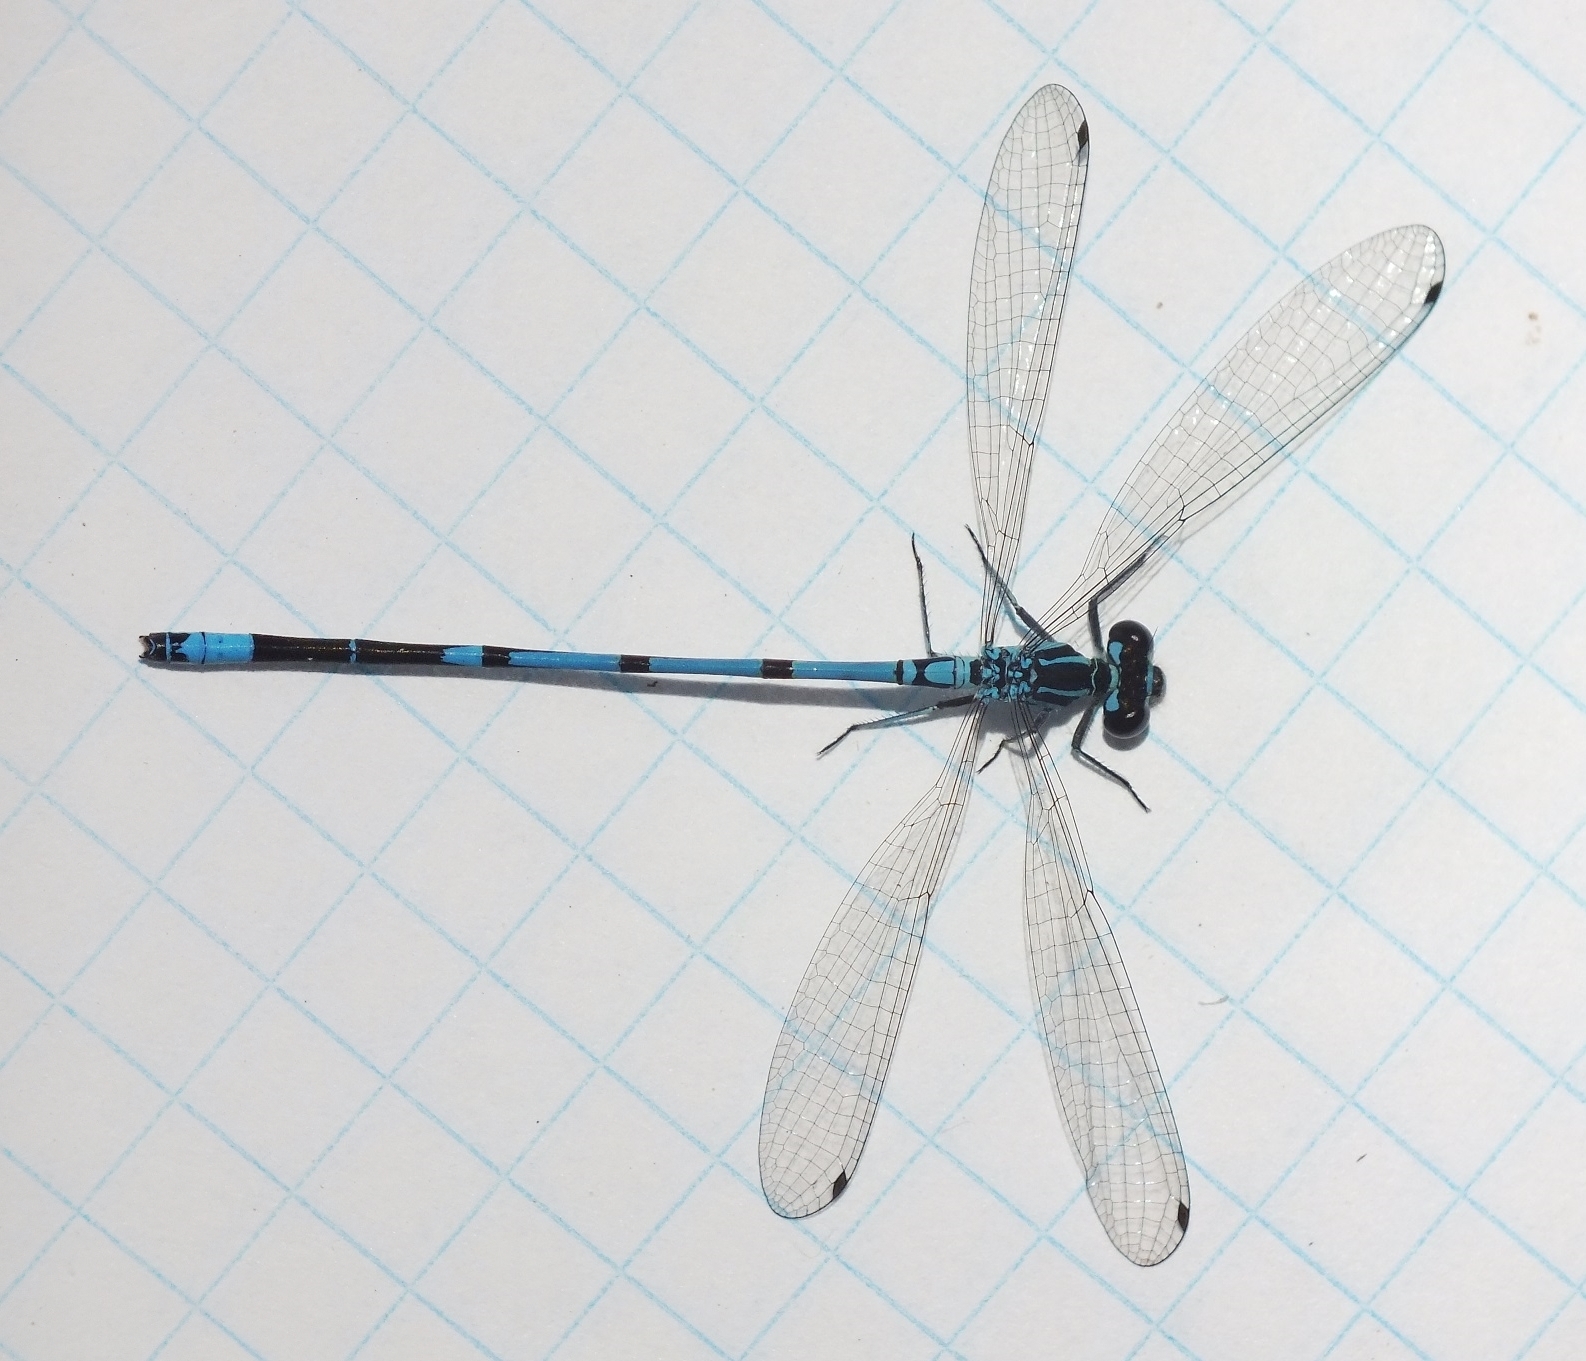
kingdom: Animalia
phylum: Arthropoda
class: Insecta
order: Odonata
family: Coenagrionidae
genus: Coenagrion
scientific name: Coenagrion puella
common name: Azure damselfly
